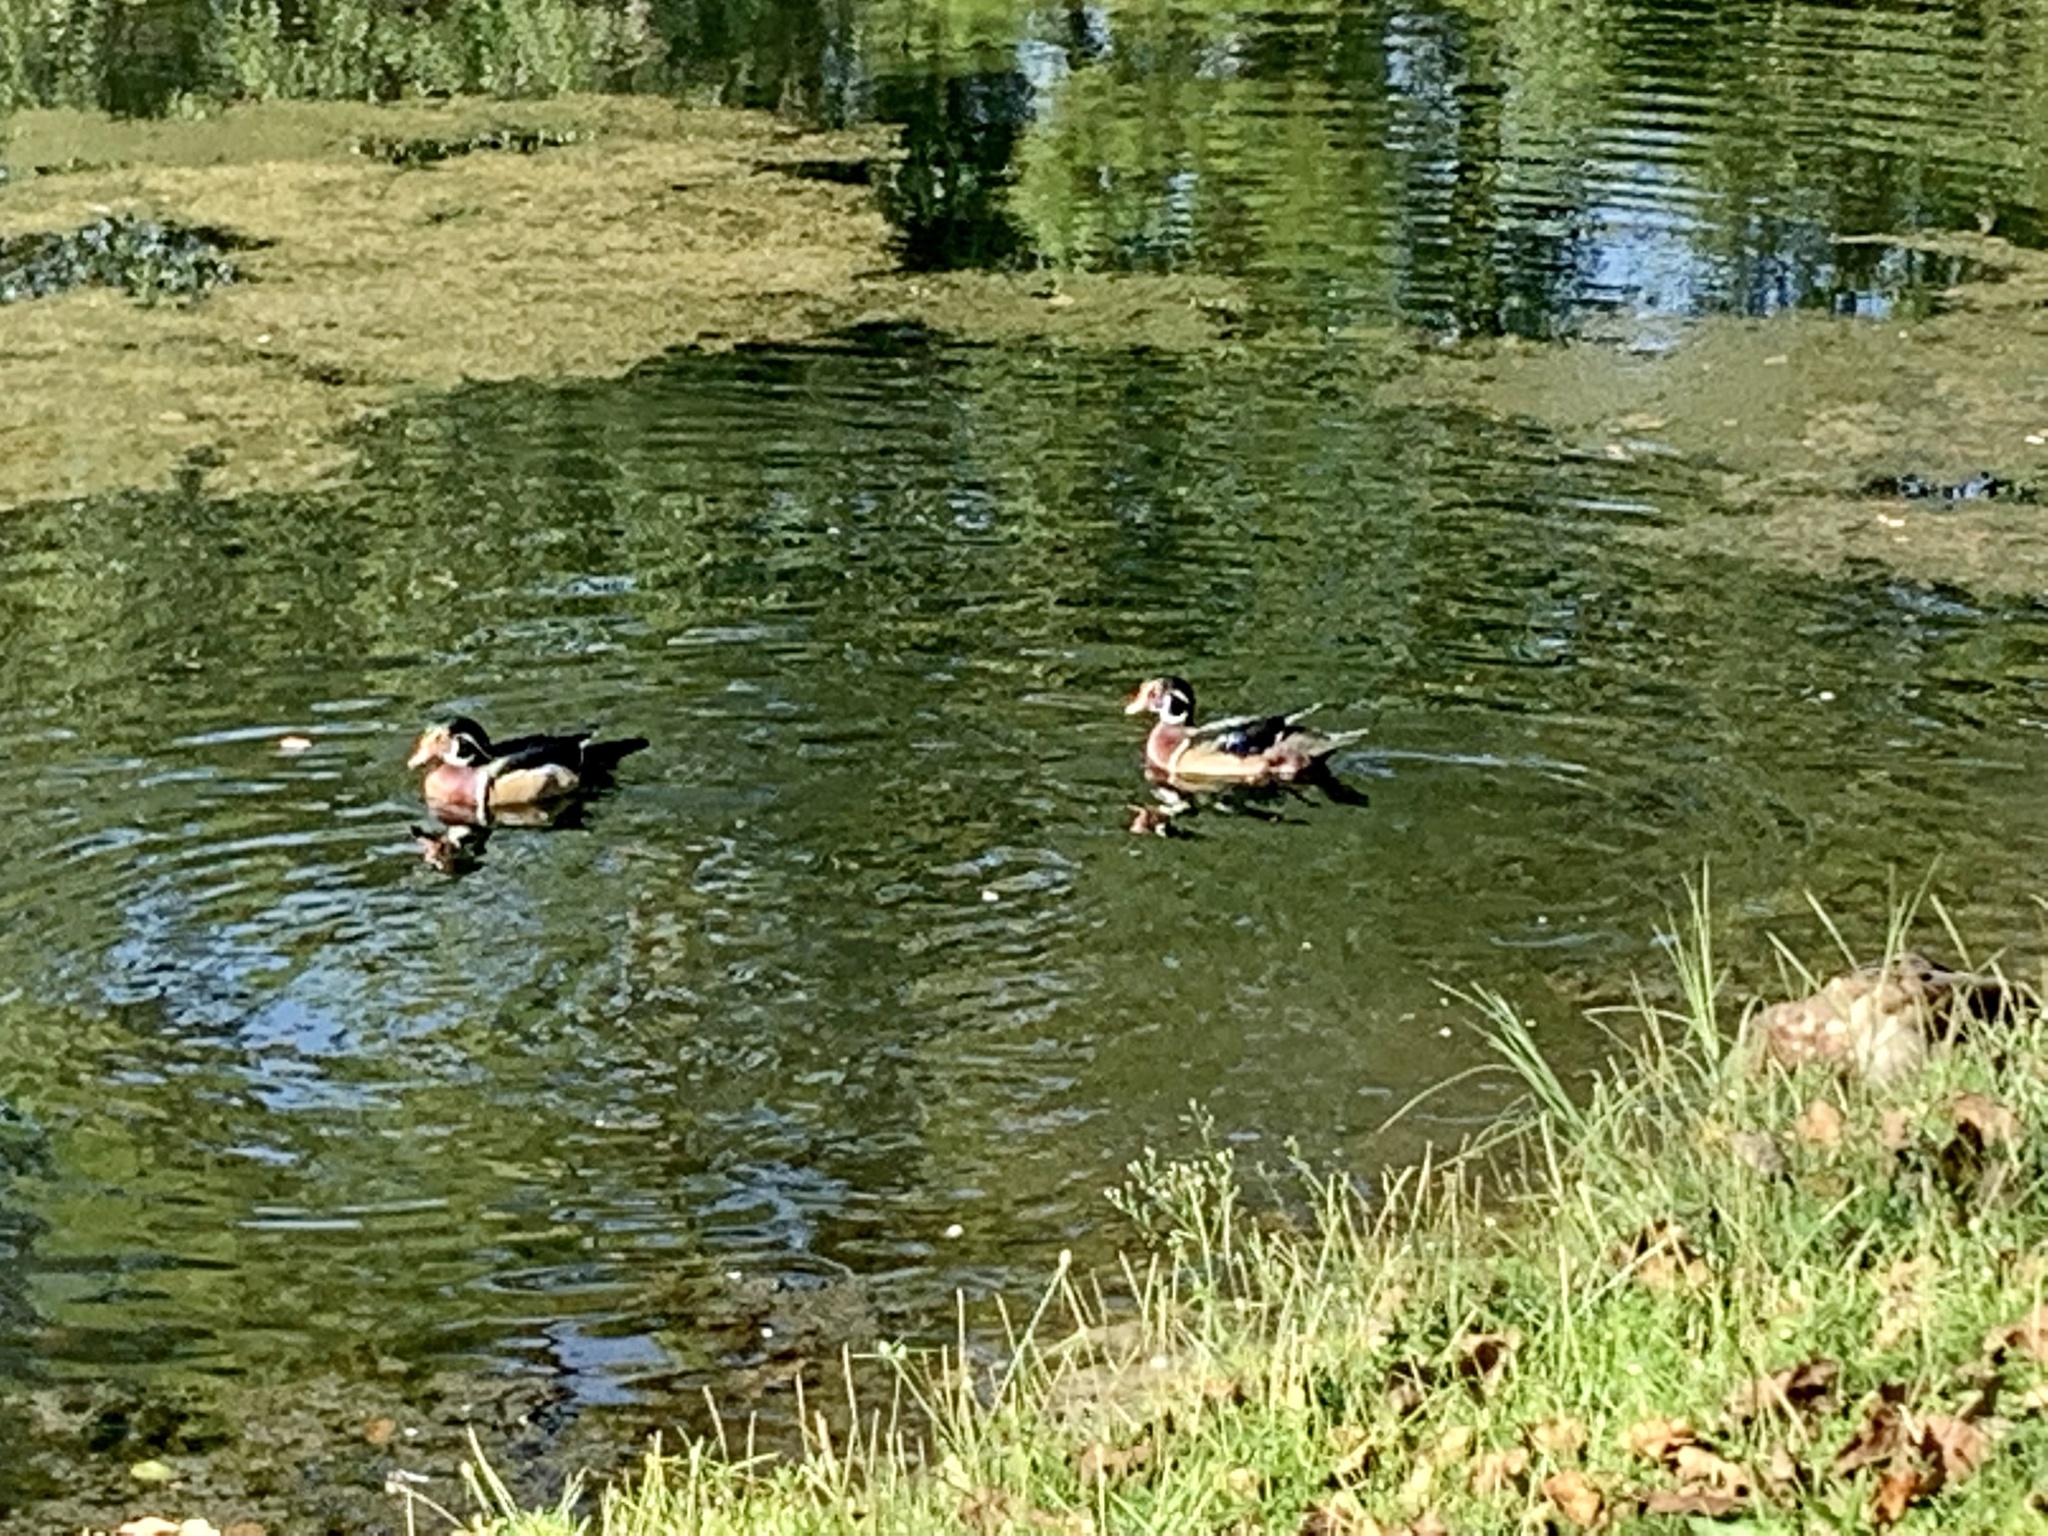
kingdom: Animalia
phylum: Chordata
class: Aves
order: Anseriformes
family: Anatidae
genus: Aix
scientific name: Aix sponsa
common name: Wood duck
